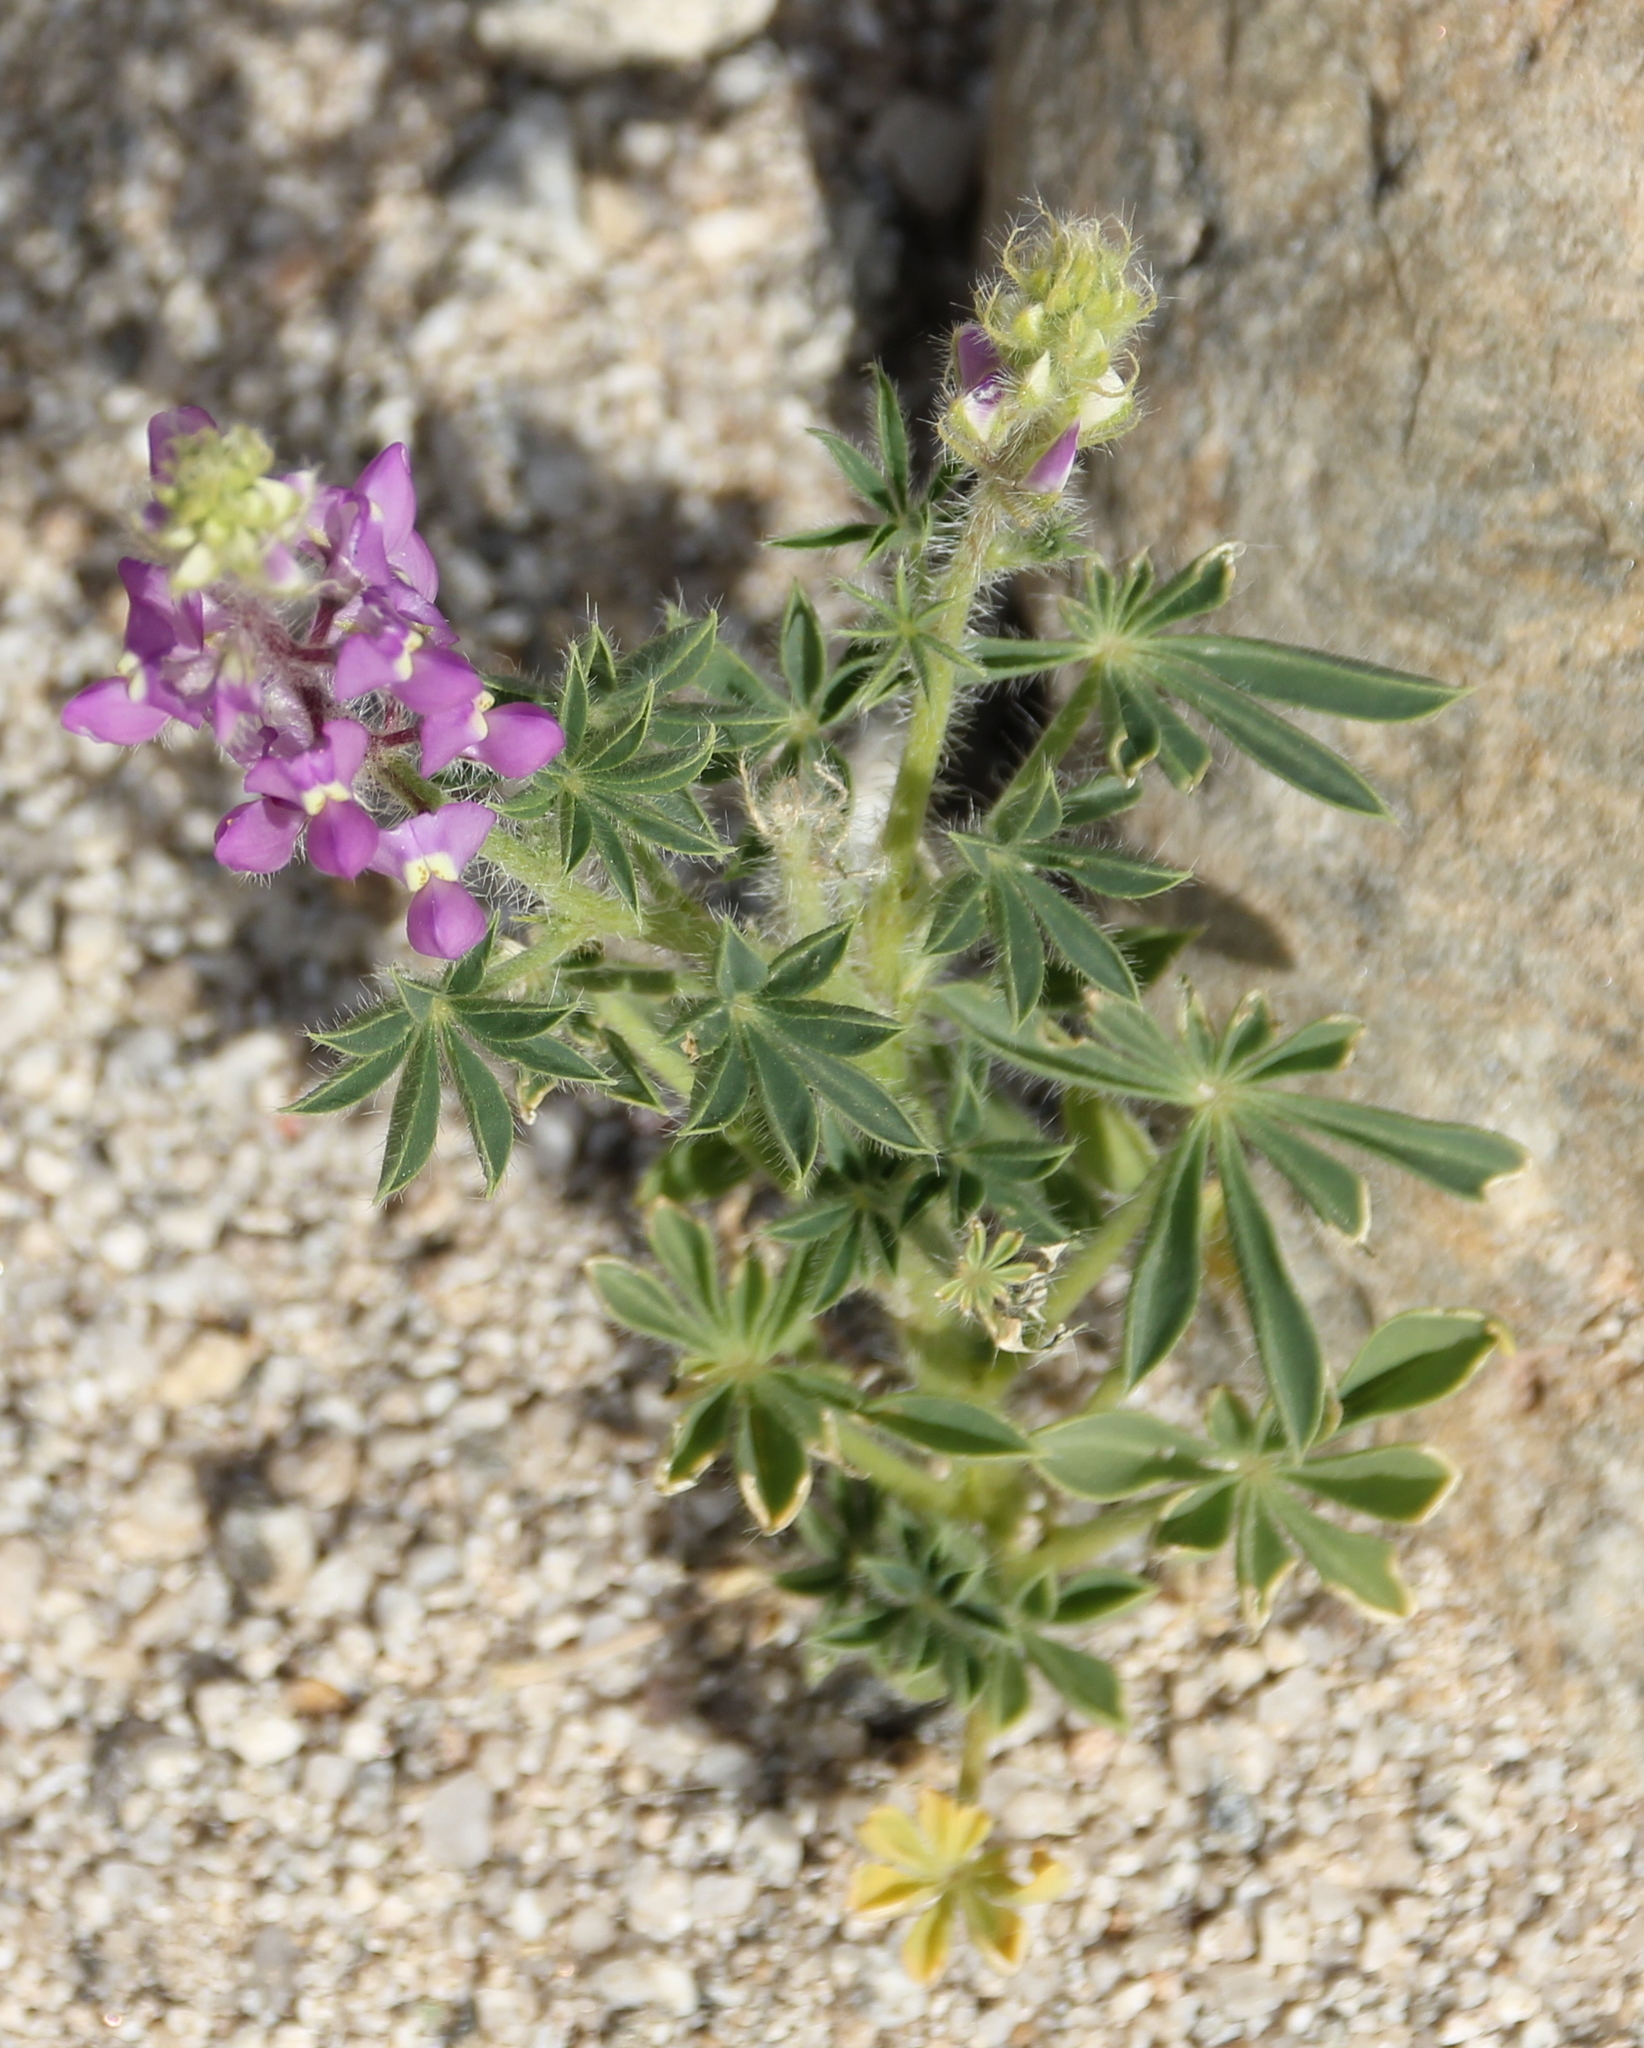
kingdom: Plantae
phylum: Tracheophyta
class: Magnoliopsida
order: Fabales
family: Fabaceae
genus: Lupinus
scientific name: Lupinus arizonicus
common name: Arizona lupine
